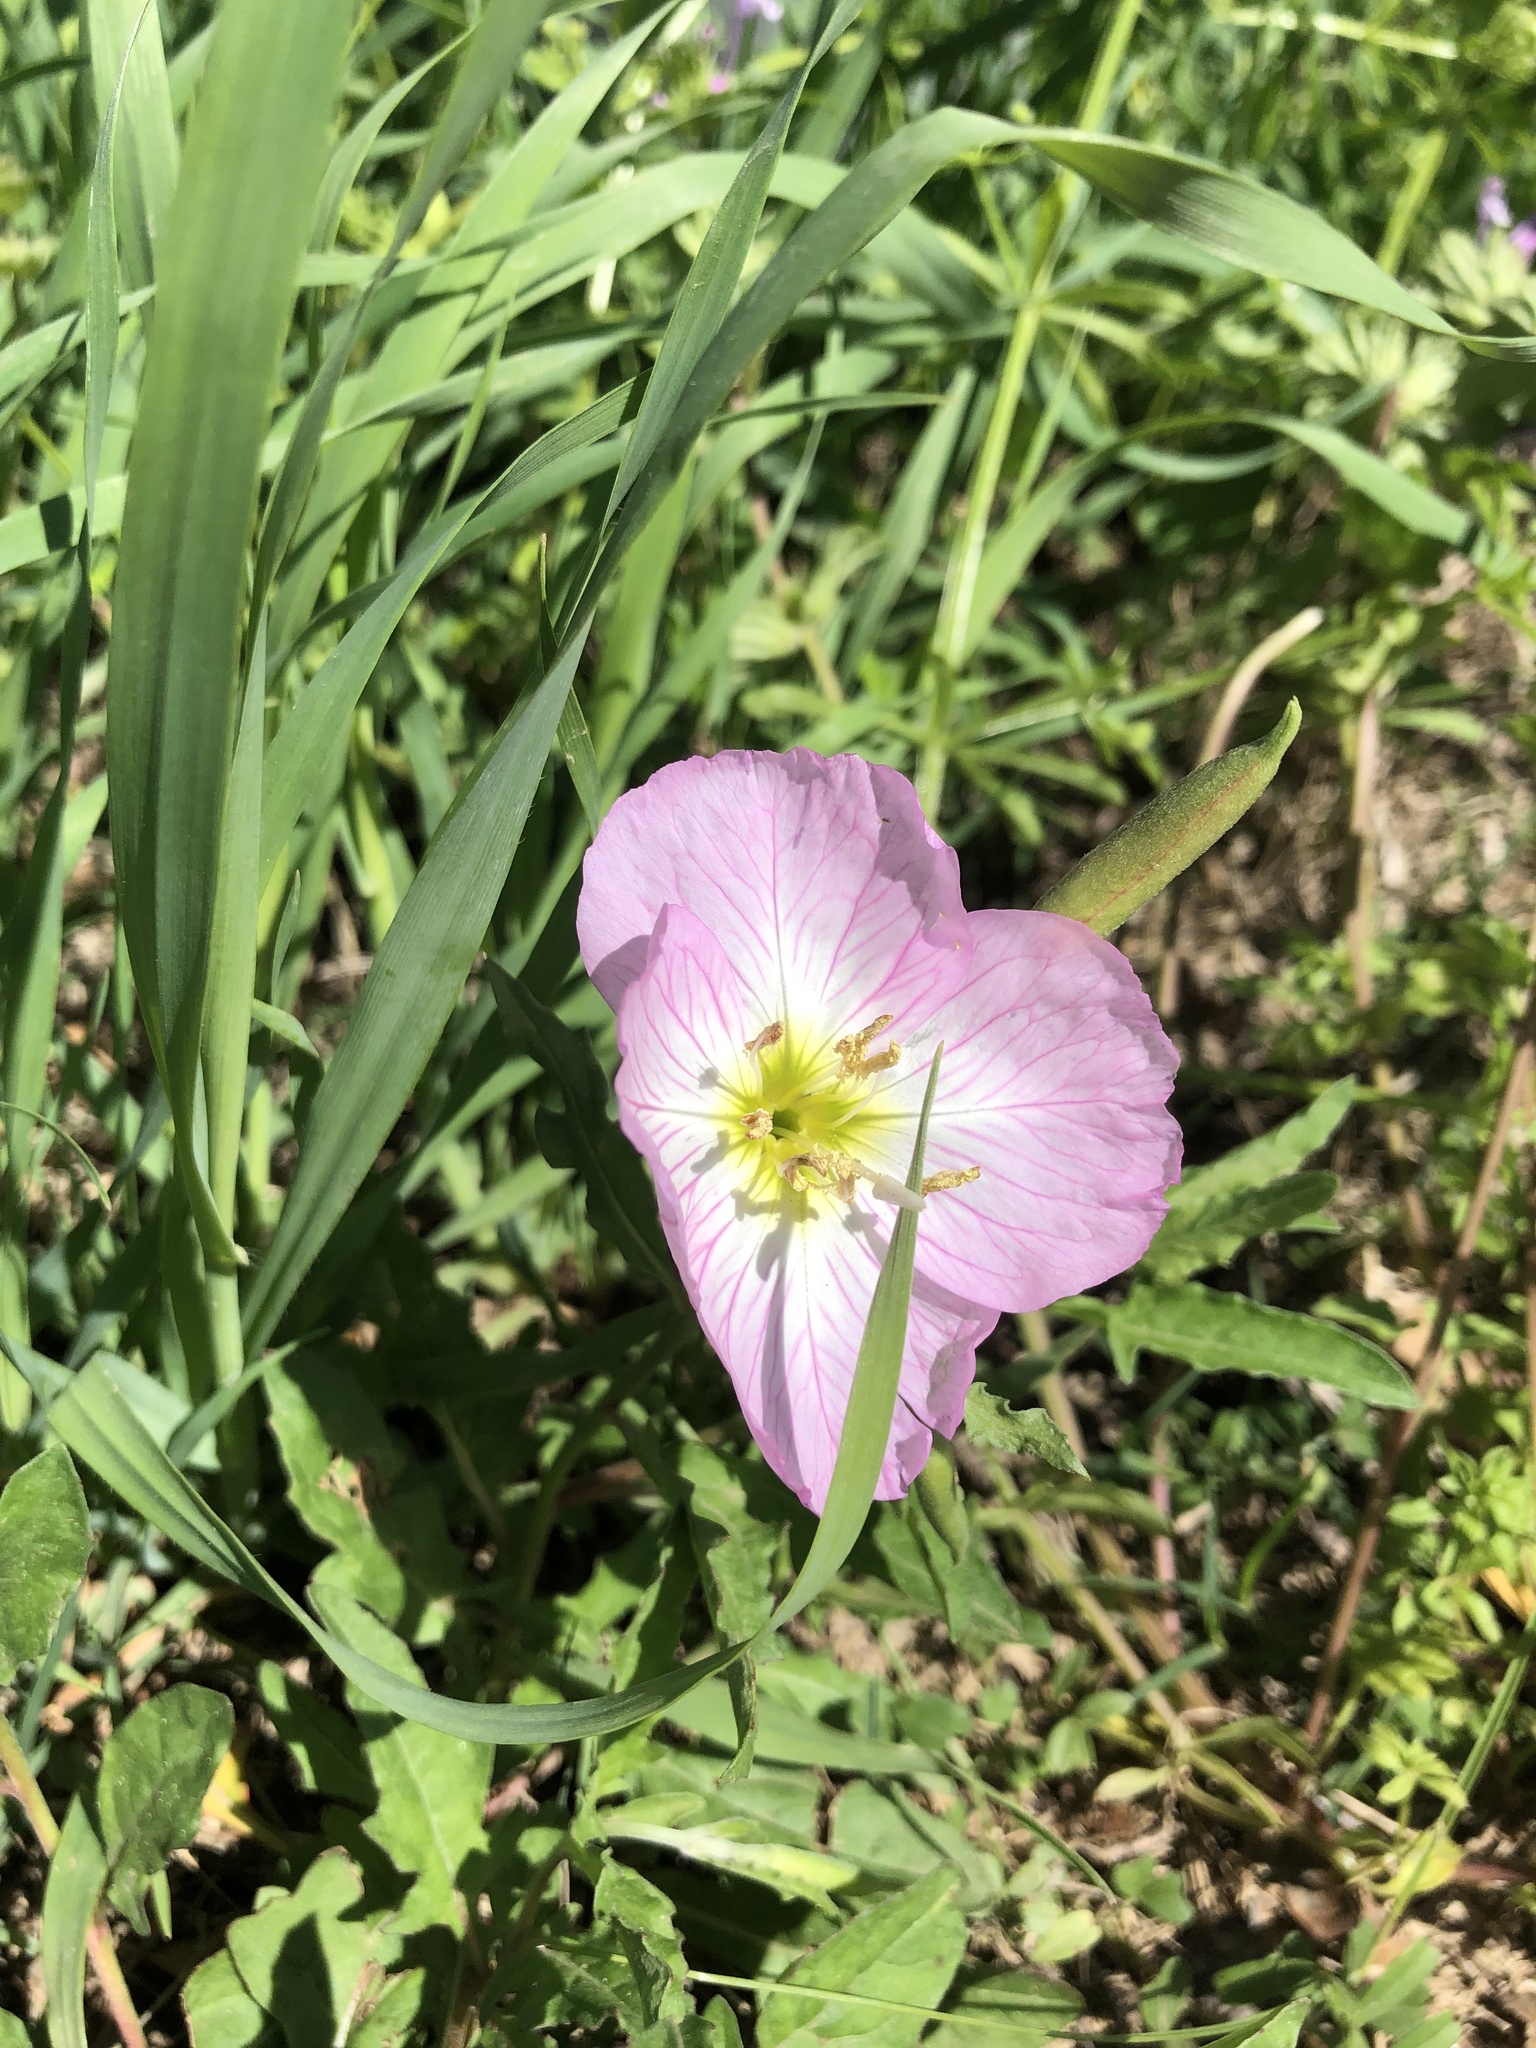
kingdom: Plantae
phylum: Tracheophyta
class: Magnoliopsida
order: Myrtales
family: Onagraceae
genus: Oenothera
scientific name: Oenothera speciosa
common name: White evening-primrose
